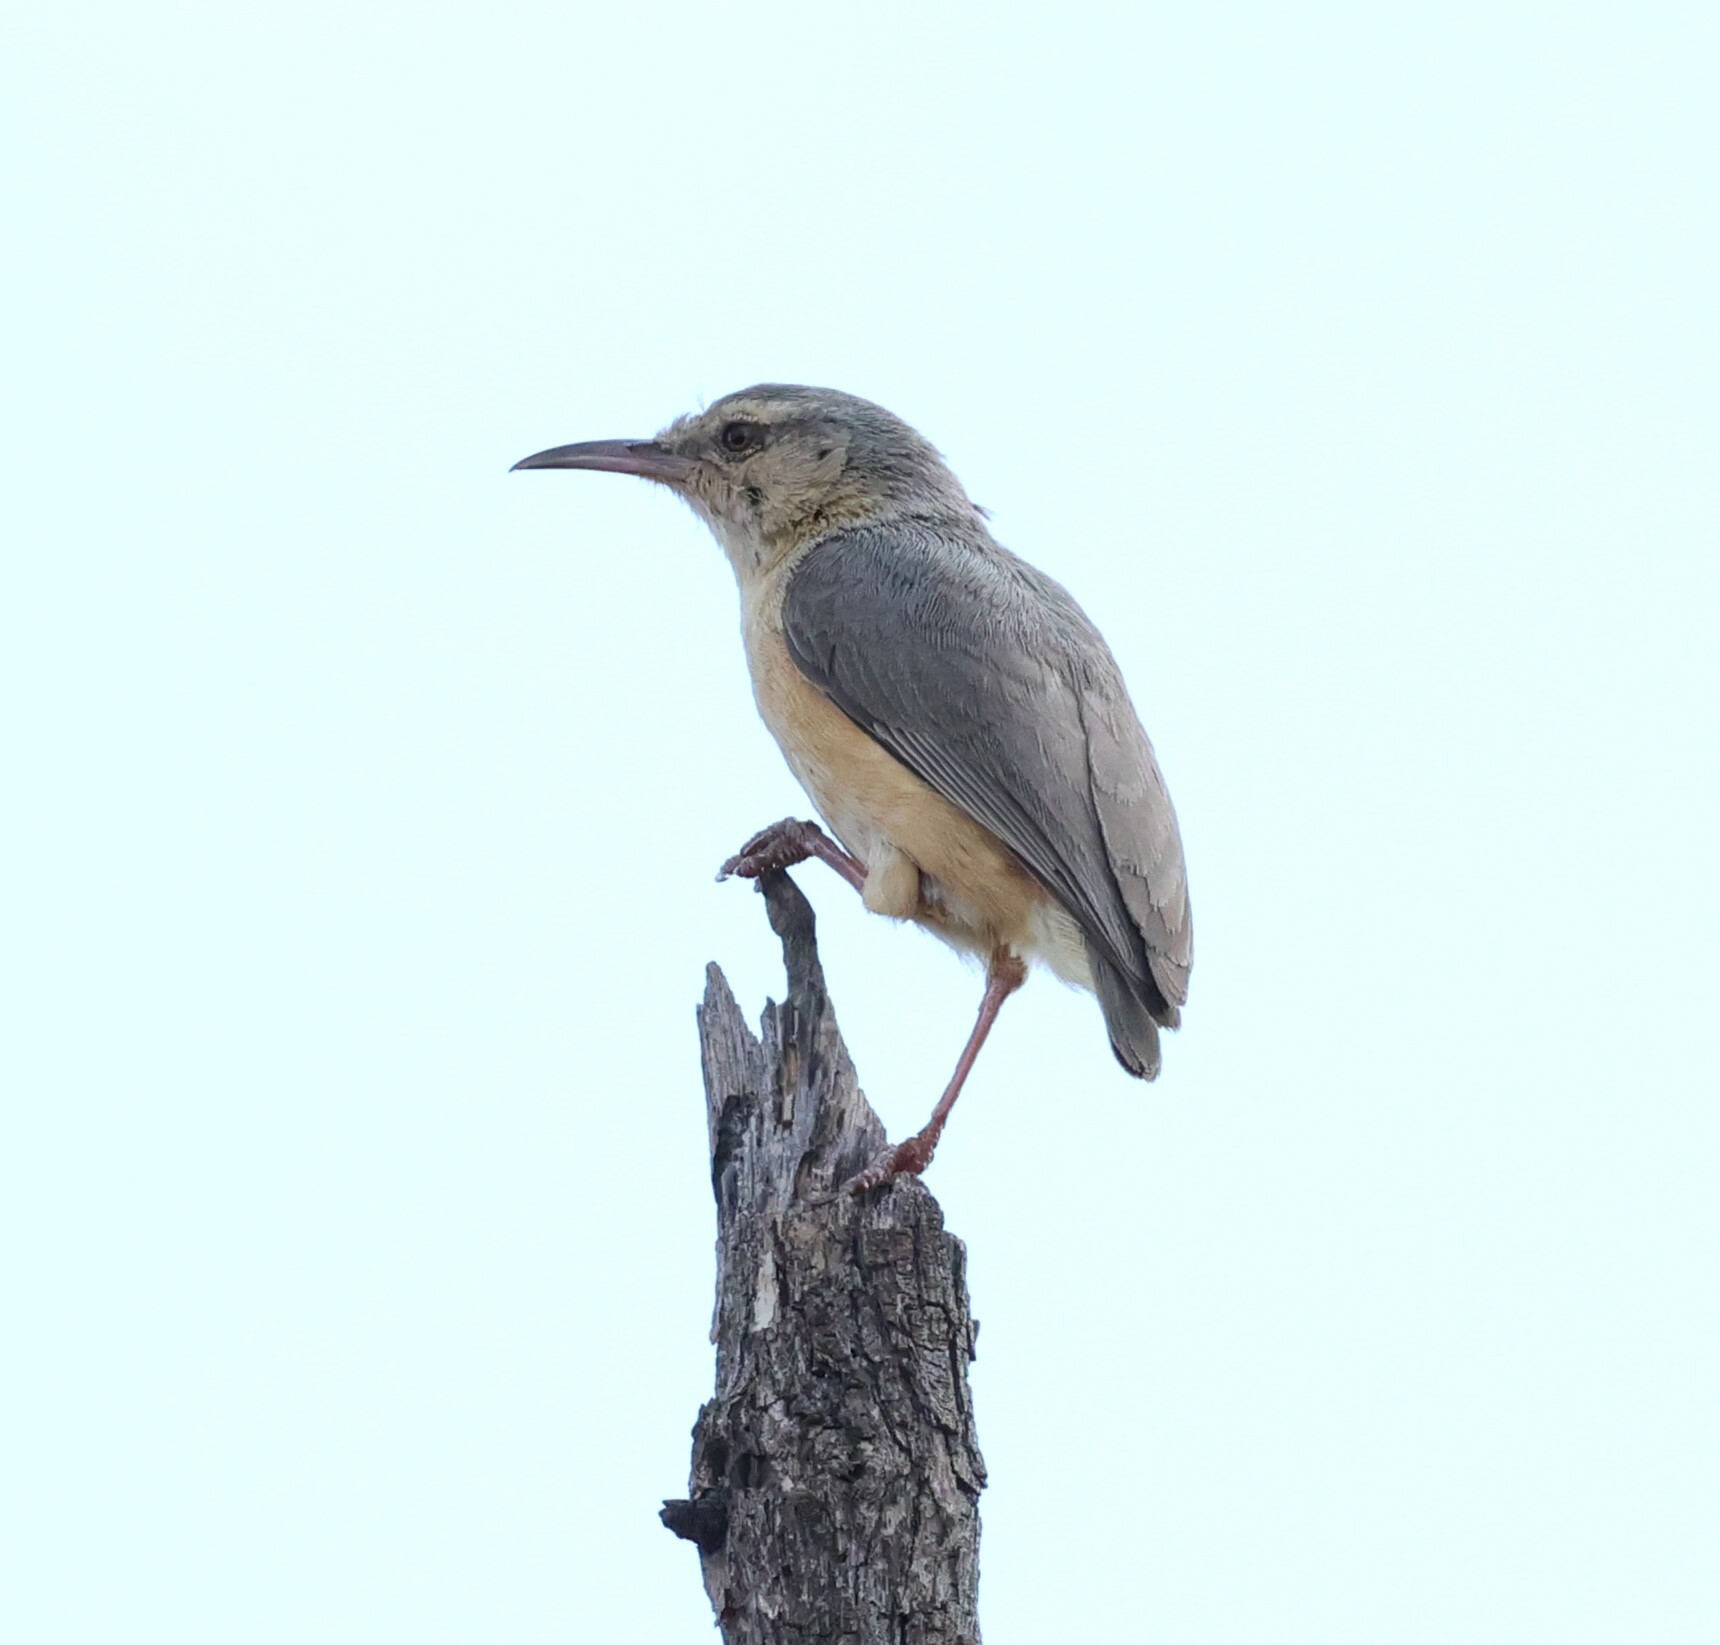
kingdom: Animalia
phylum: Chordata
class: Aves
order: Passeriformes
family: Macrosphenidae
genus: Sylvietta
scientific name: Sylvietta rufescens
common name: Long-billed crombec
